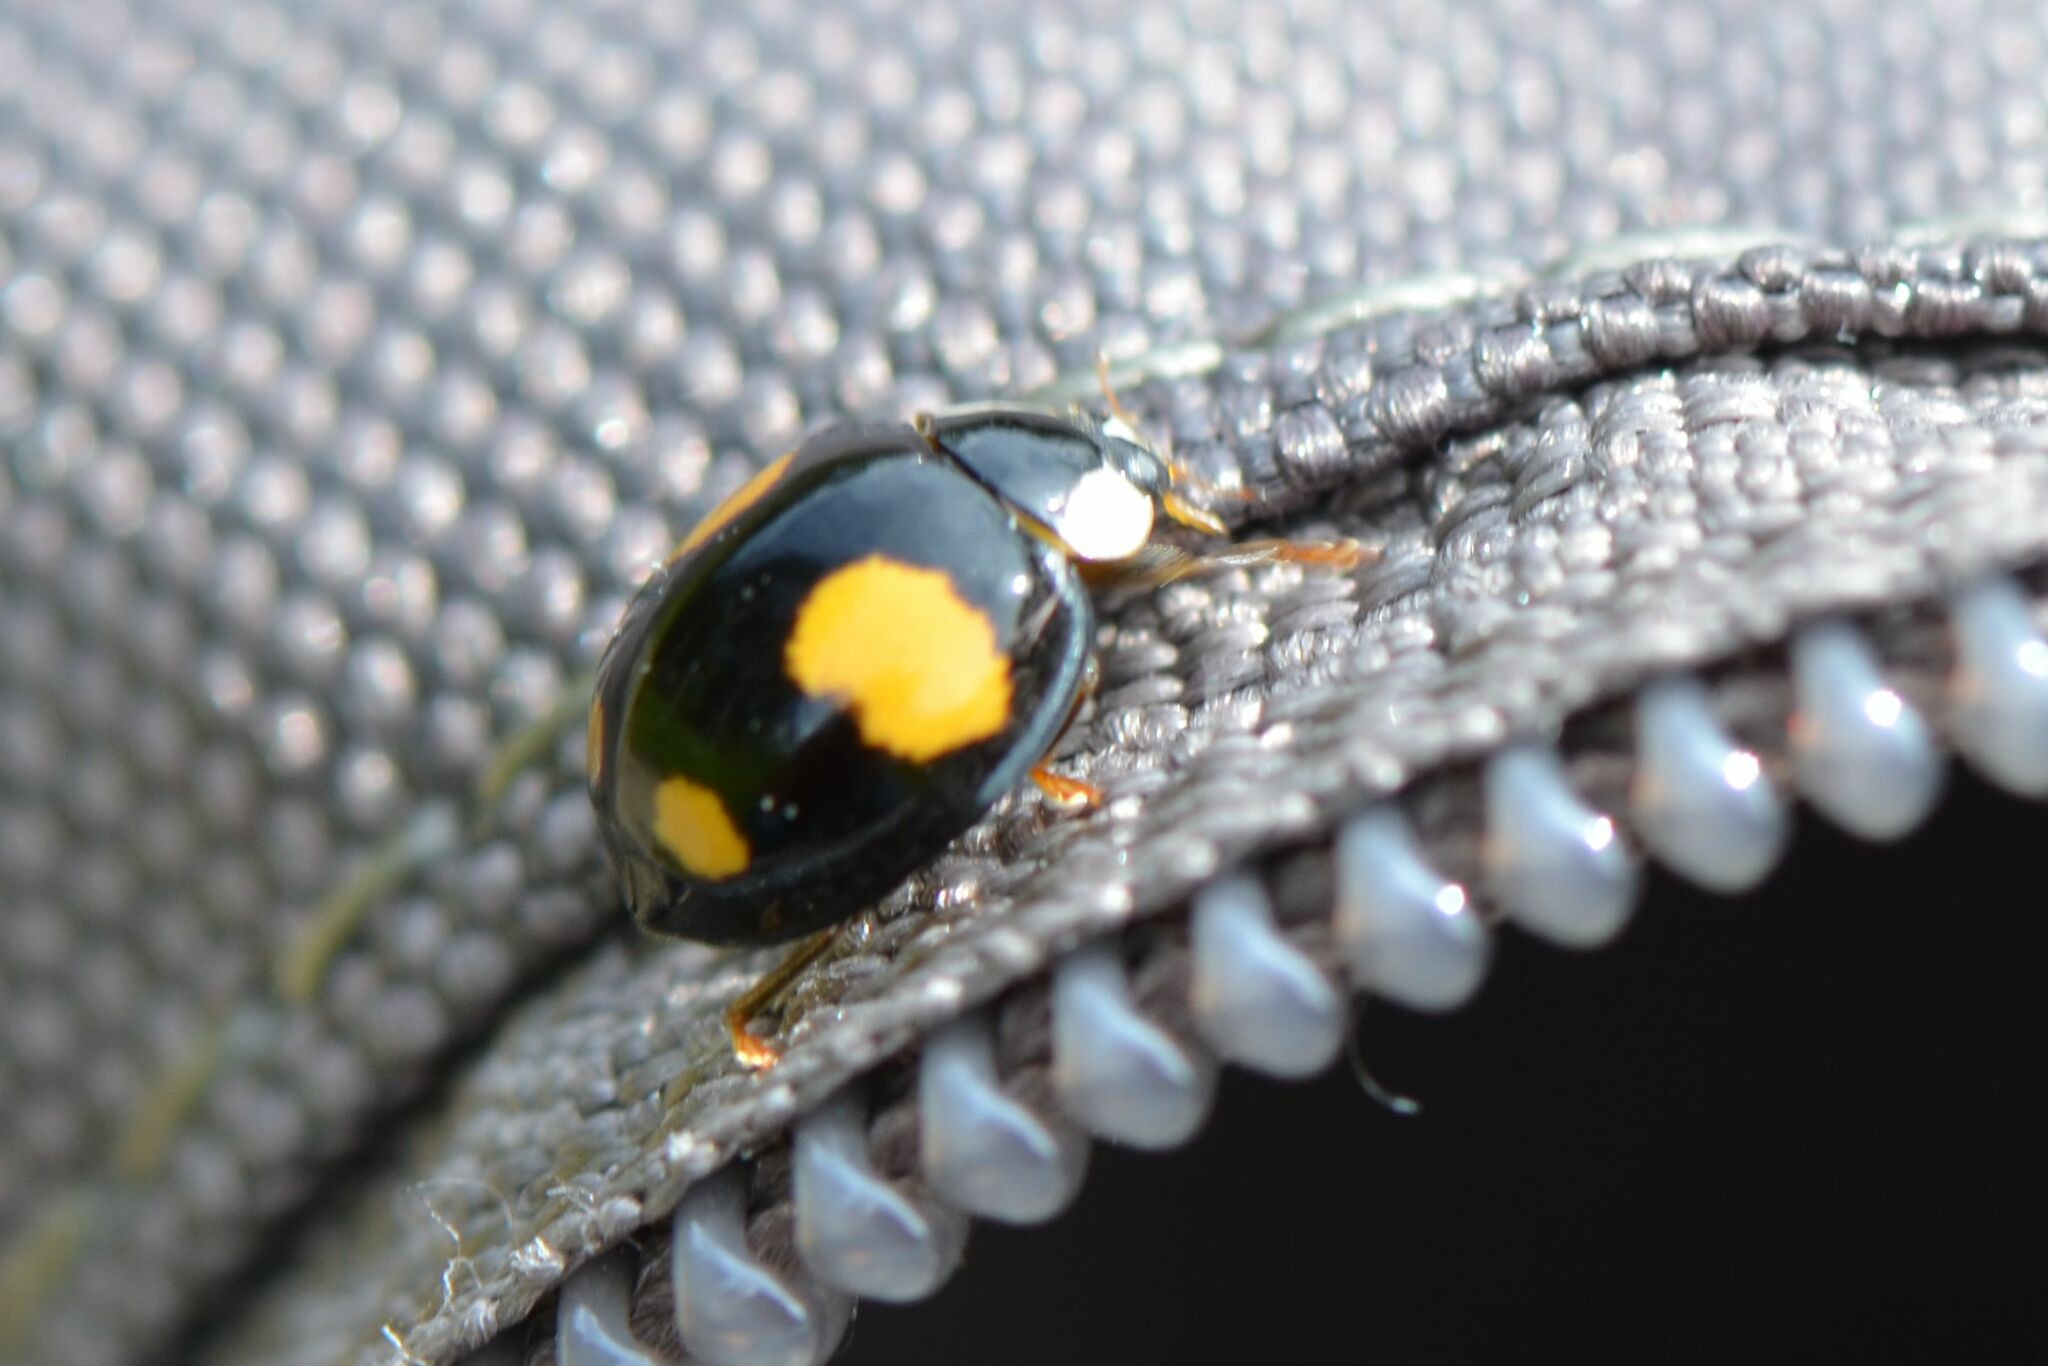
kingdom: Animalia
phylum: Arthropoda
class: Insecta
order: Coleoptera
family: Coccinellidae
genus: Harmonia
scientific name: Harmonia axyridis
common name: Harlequin ladybird
